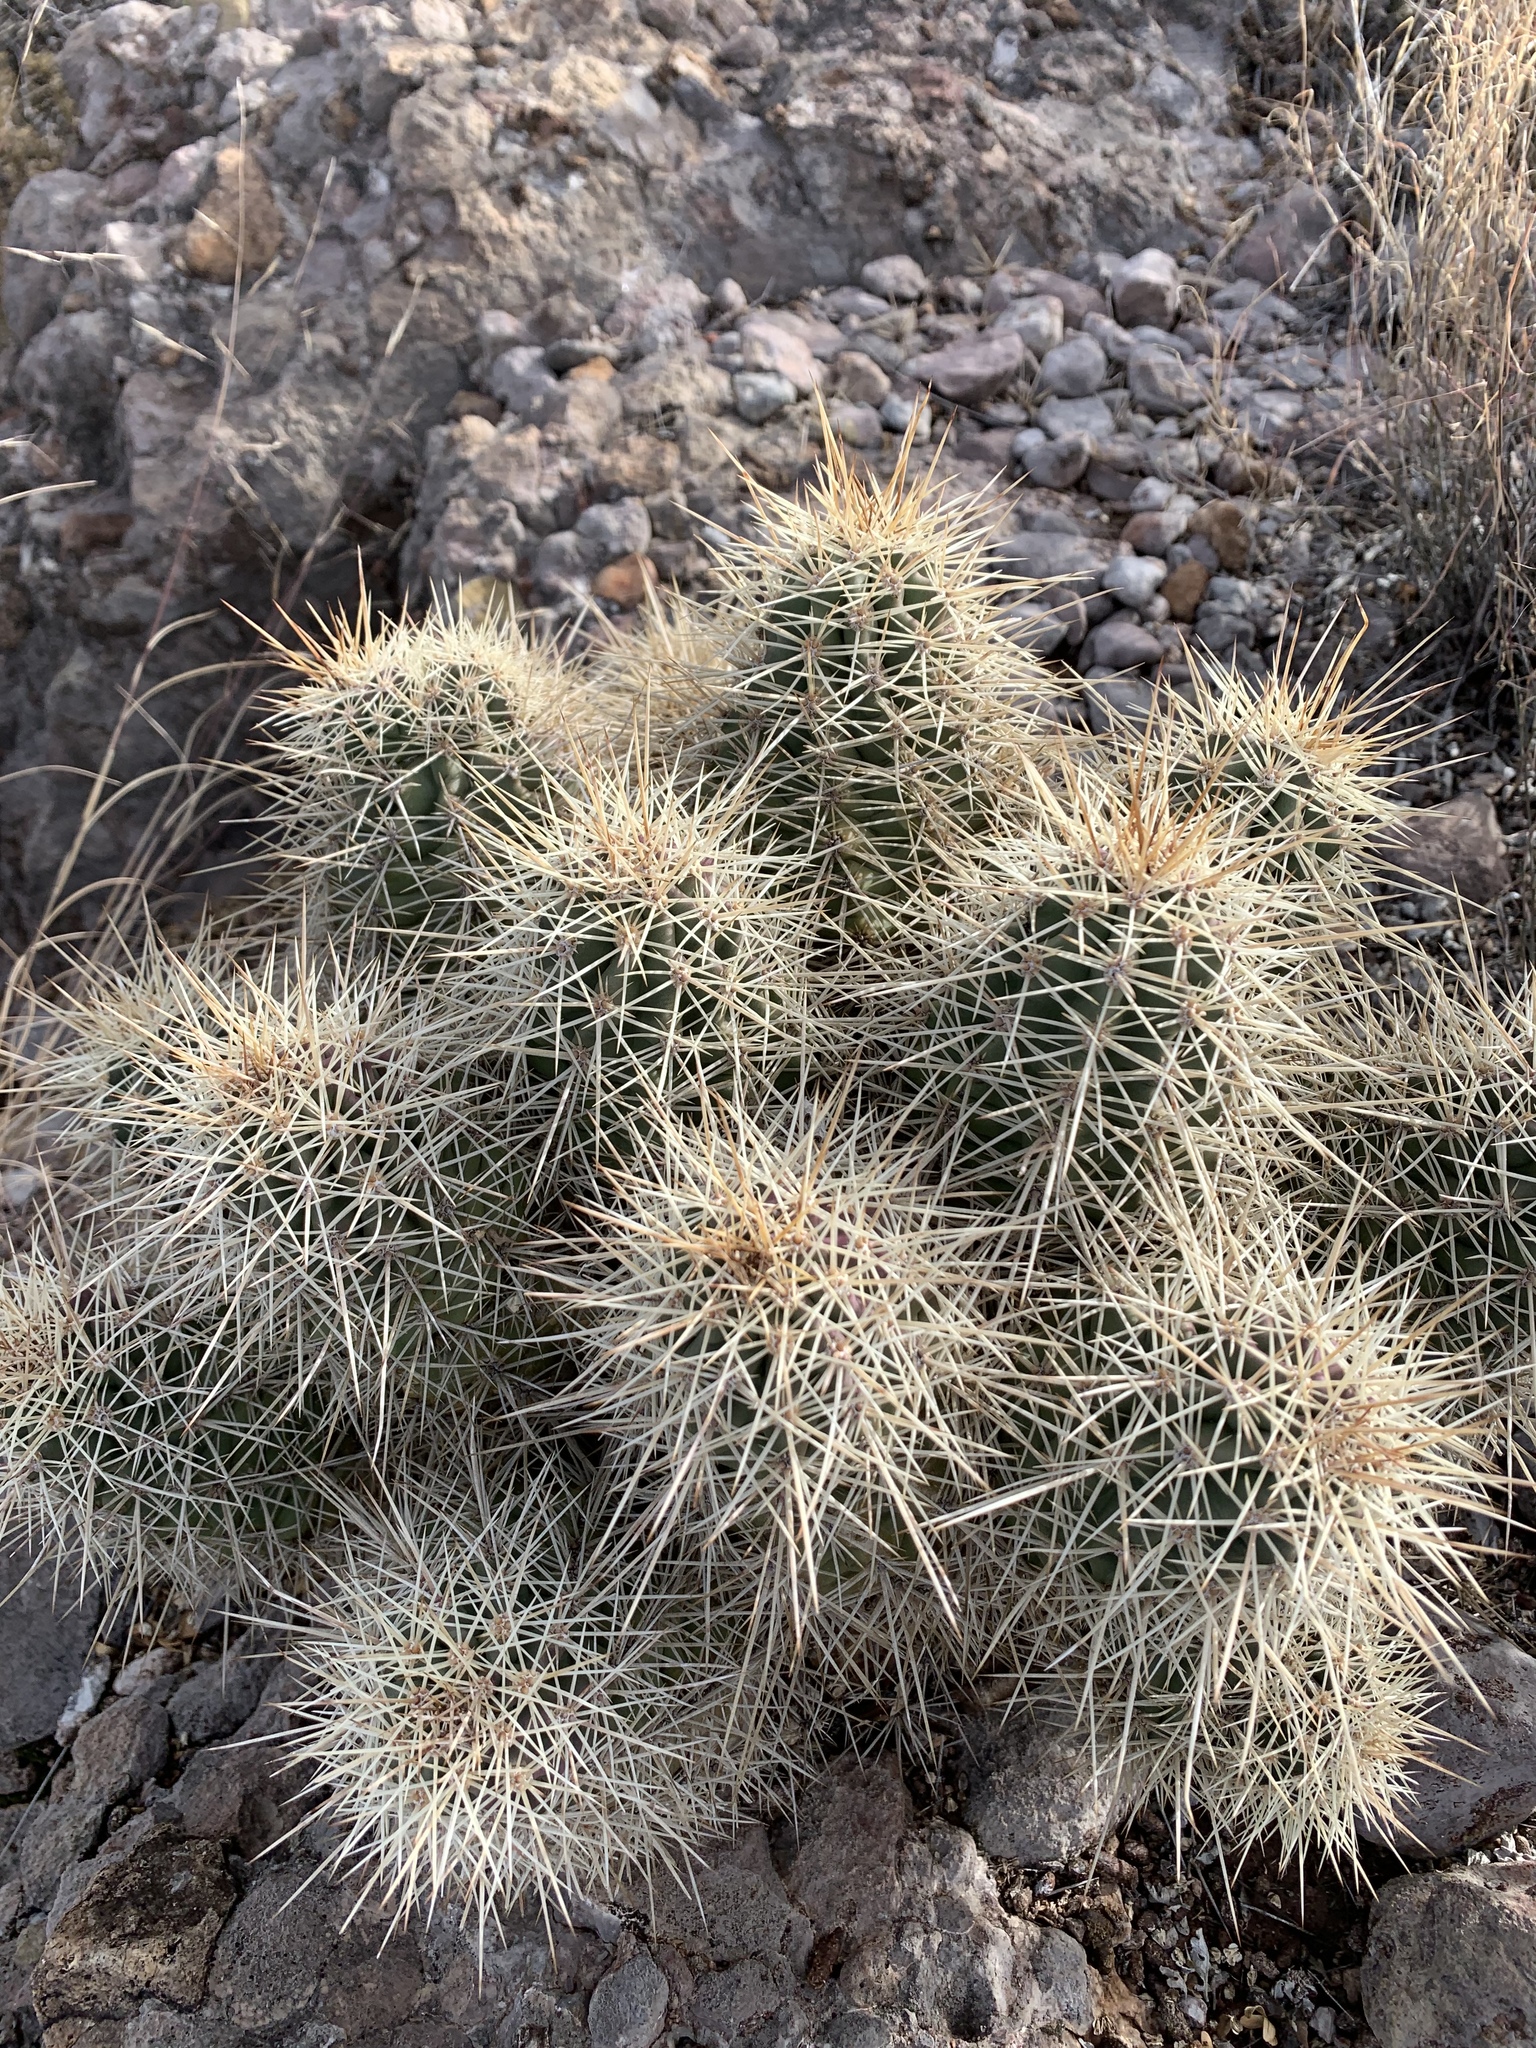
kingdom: Plantae
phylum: Tracheophyta
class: Magnoliopsida
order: Caryophyllales
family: Cactaceae
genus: Echinocereus
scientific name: Echinocereus coccineus
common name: Scarlet hedgehog cactus
